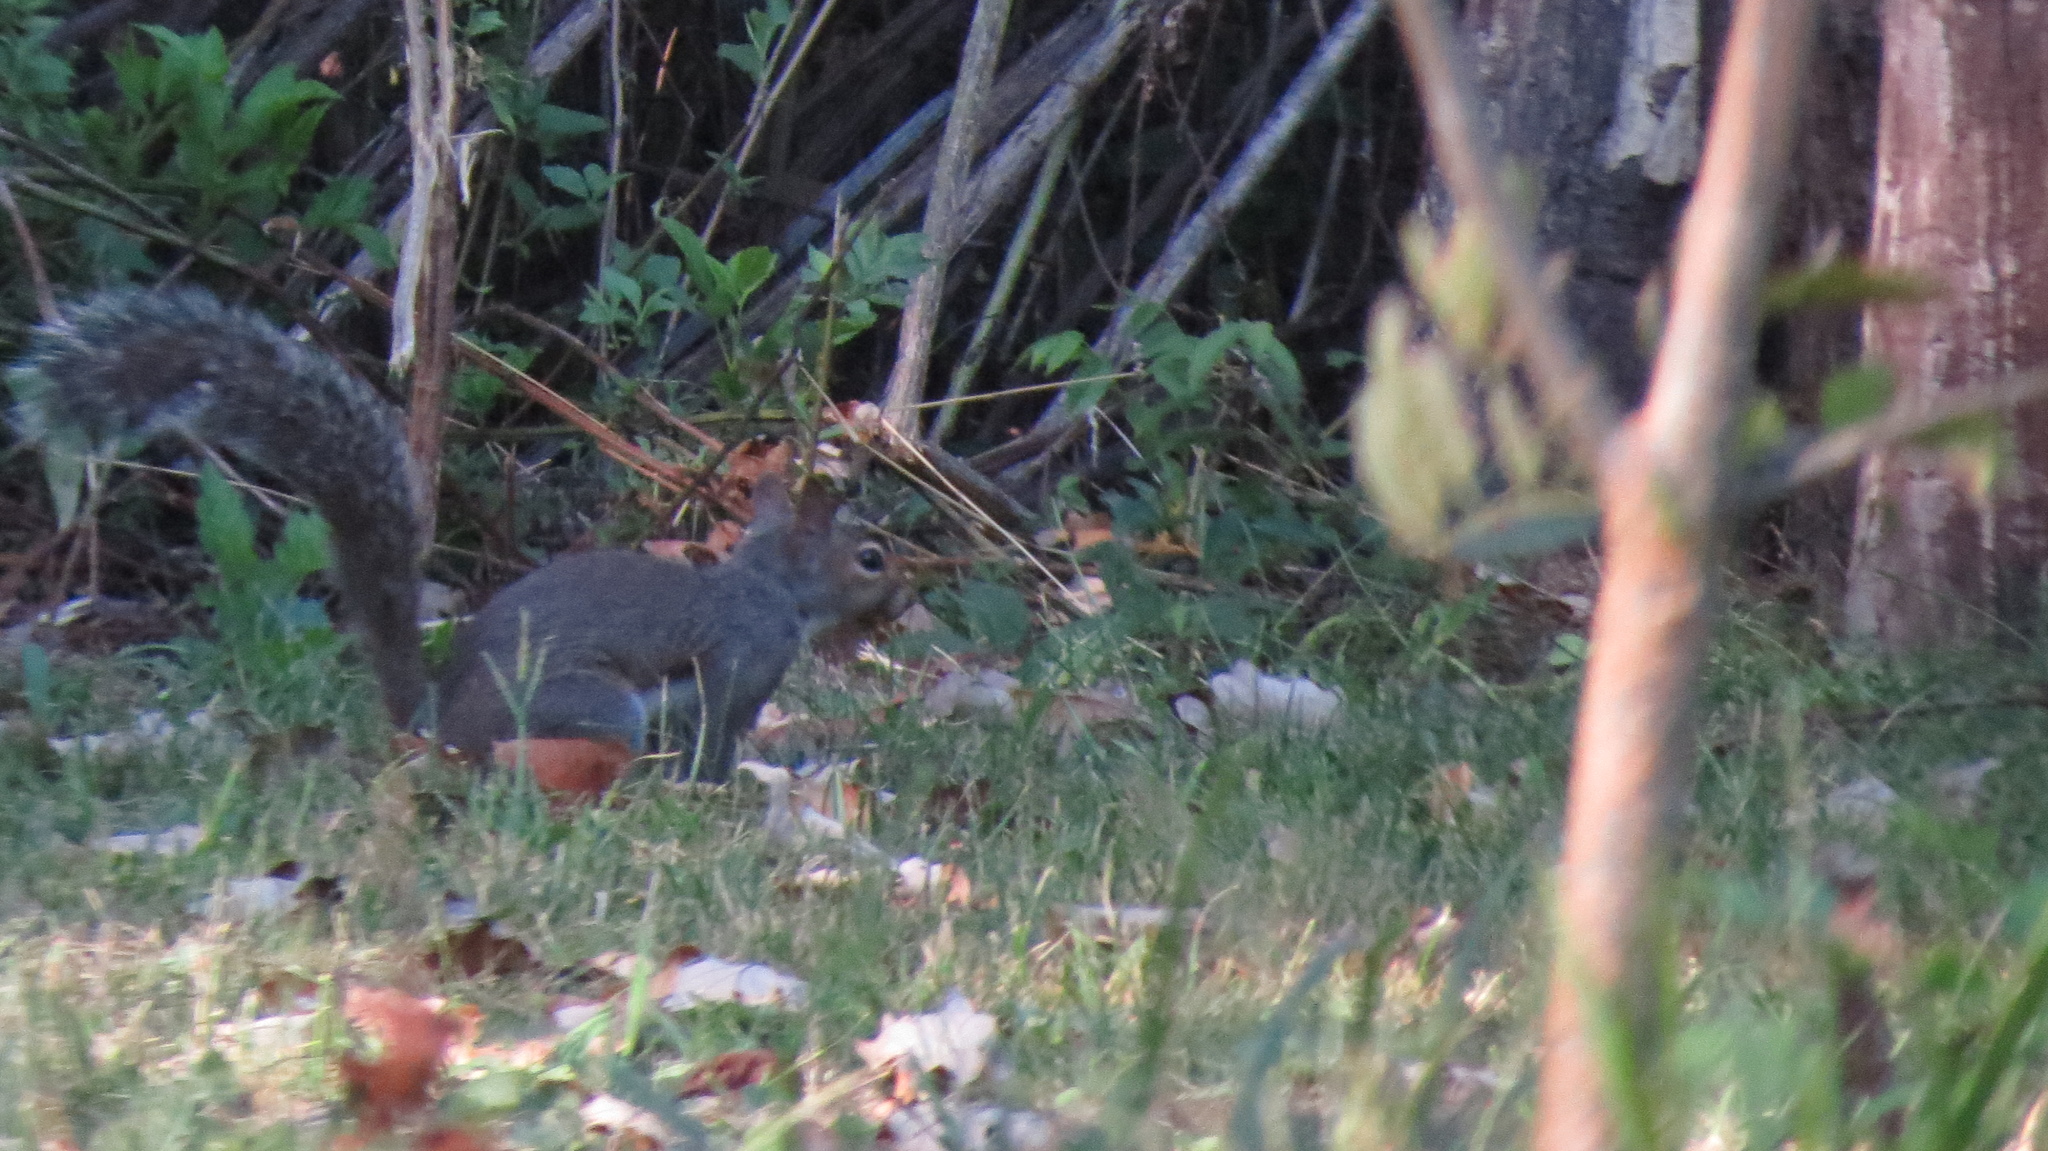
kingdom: Animalia
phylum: Chordata
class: Mammalia
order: Rodentia
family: Sciuridae
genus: Sciurus
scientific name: Sciurus carolinensis
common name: Eastern gray squirrel
